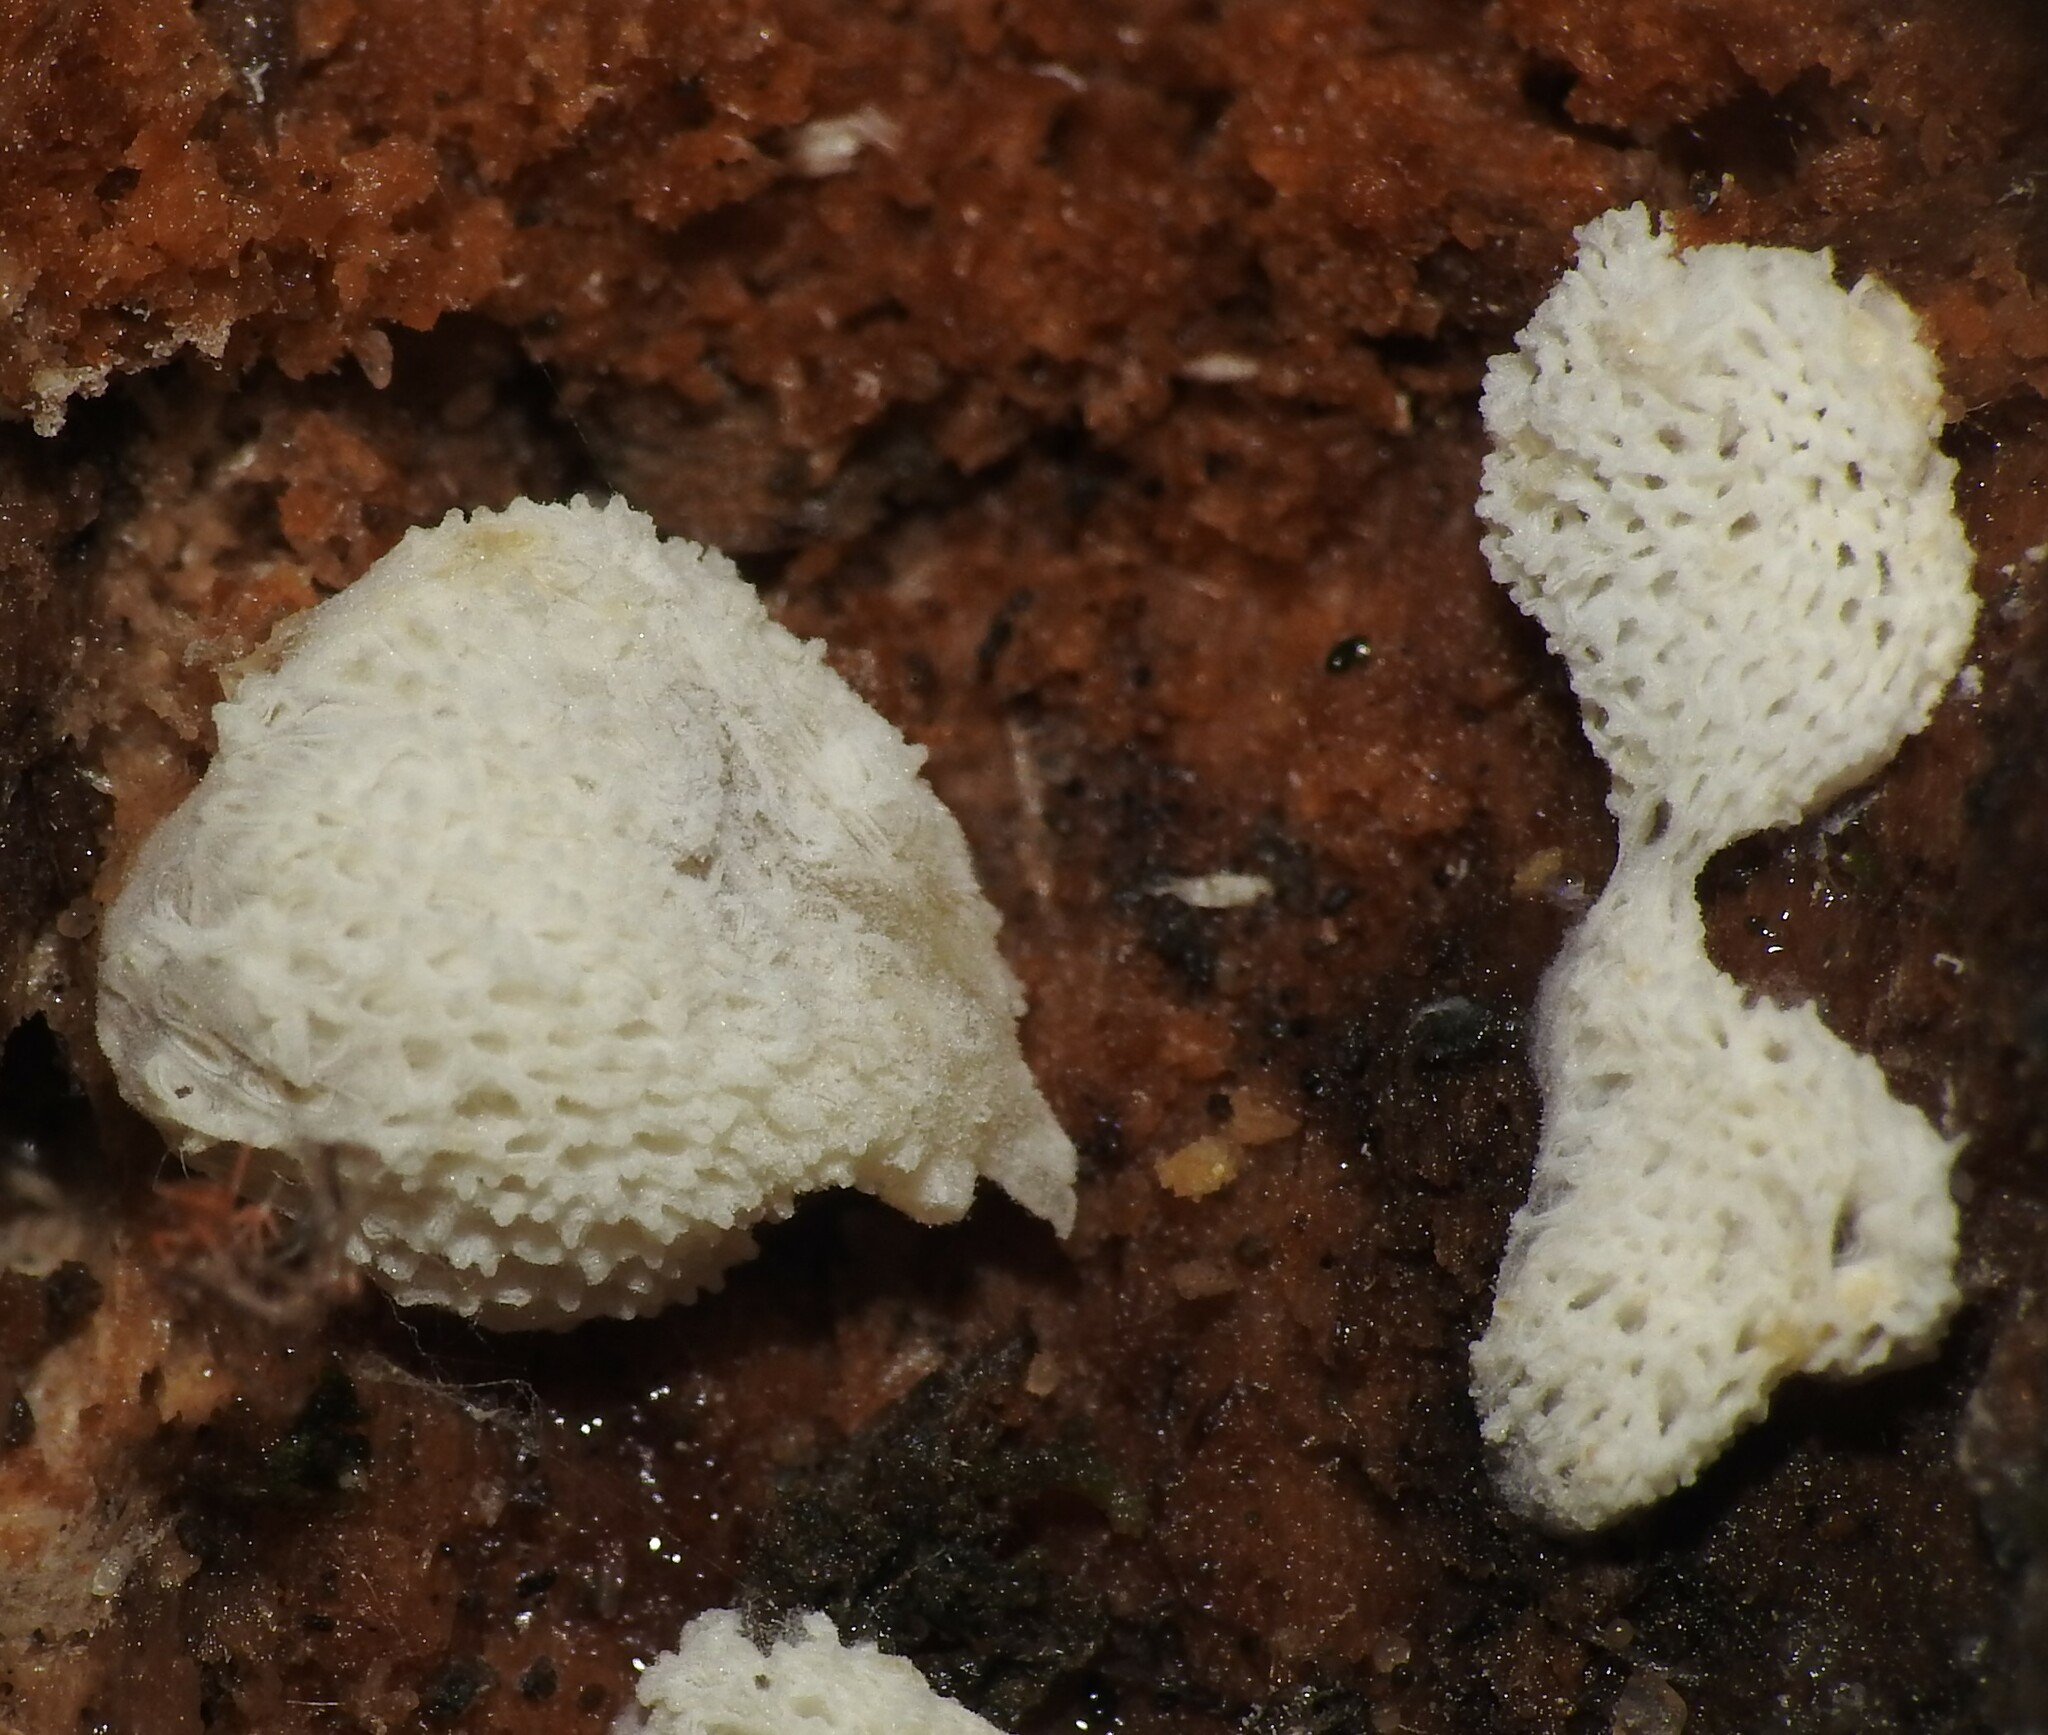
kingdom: Protozoa
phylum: Mycetozoa
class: Protosteliomycetes
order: Ceratiomyxales
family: Ceratiomyxaceae
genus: Ceratiomyxa
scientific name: Ceratiomyxa fruticulosa
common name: Honeycomb coral slime mold
